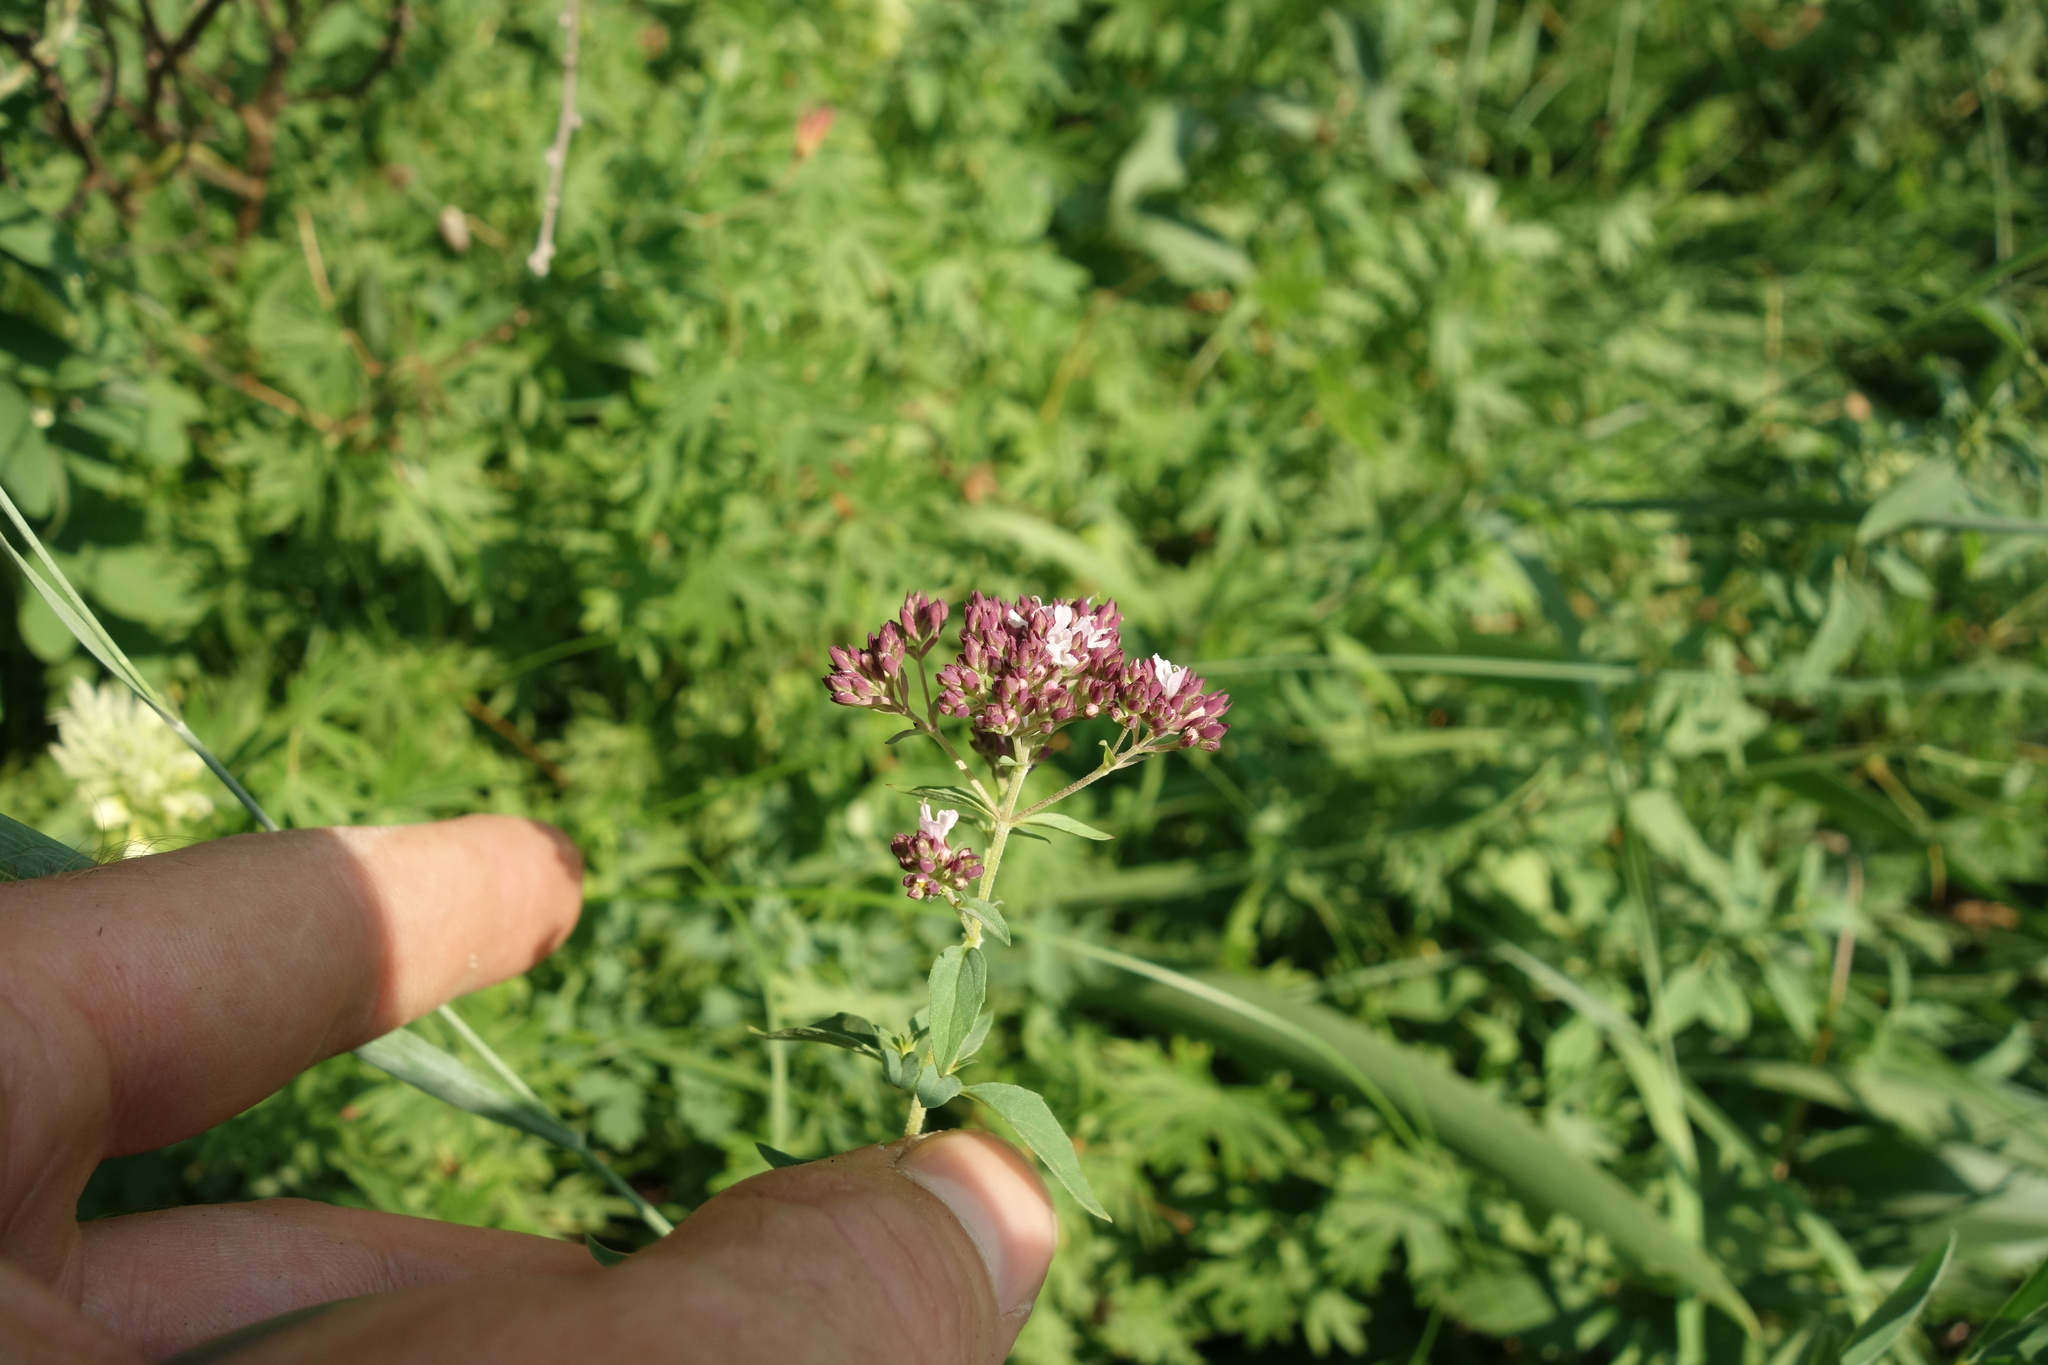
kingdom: Plantae
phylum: Tracheophyta
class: Magnoliopsida
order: Lamiales
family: Lamiaceae
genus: Origanum
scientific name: Origanum vulgare
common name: Wild marjoram
